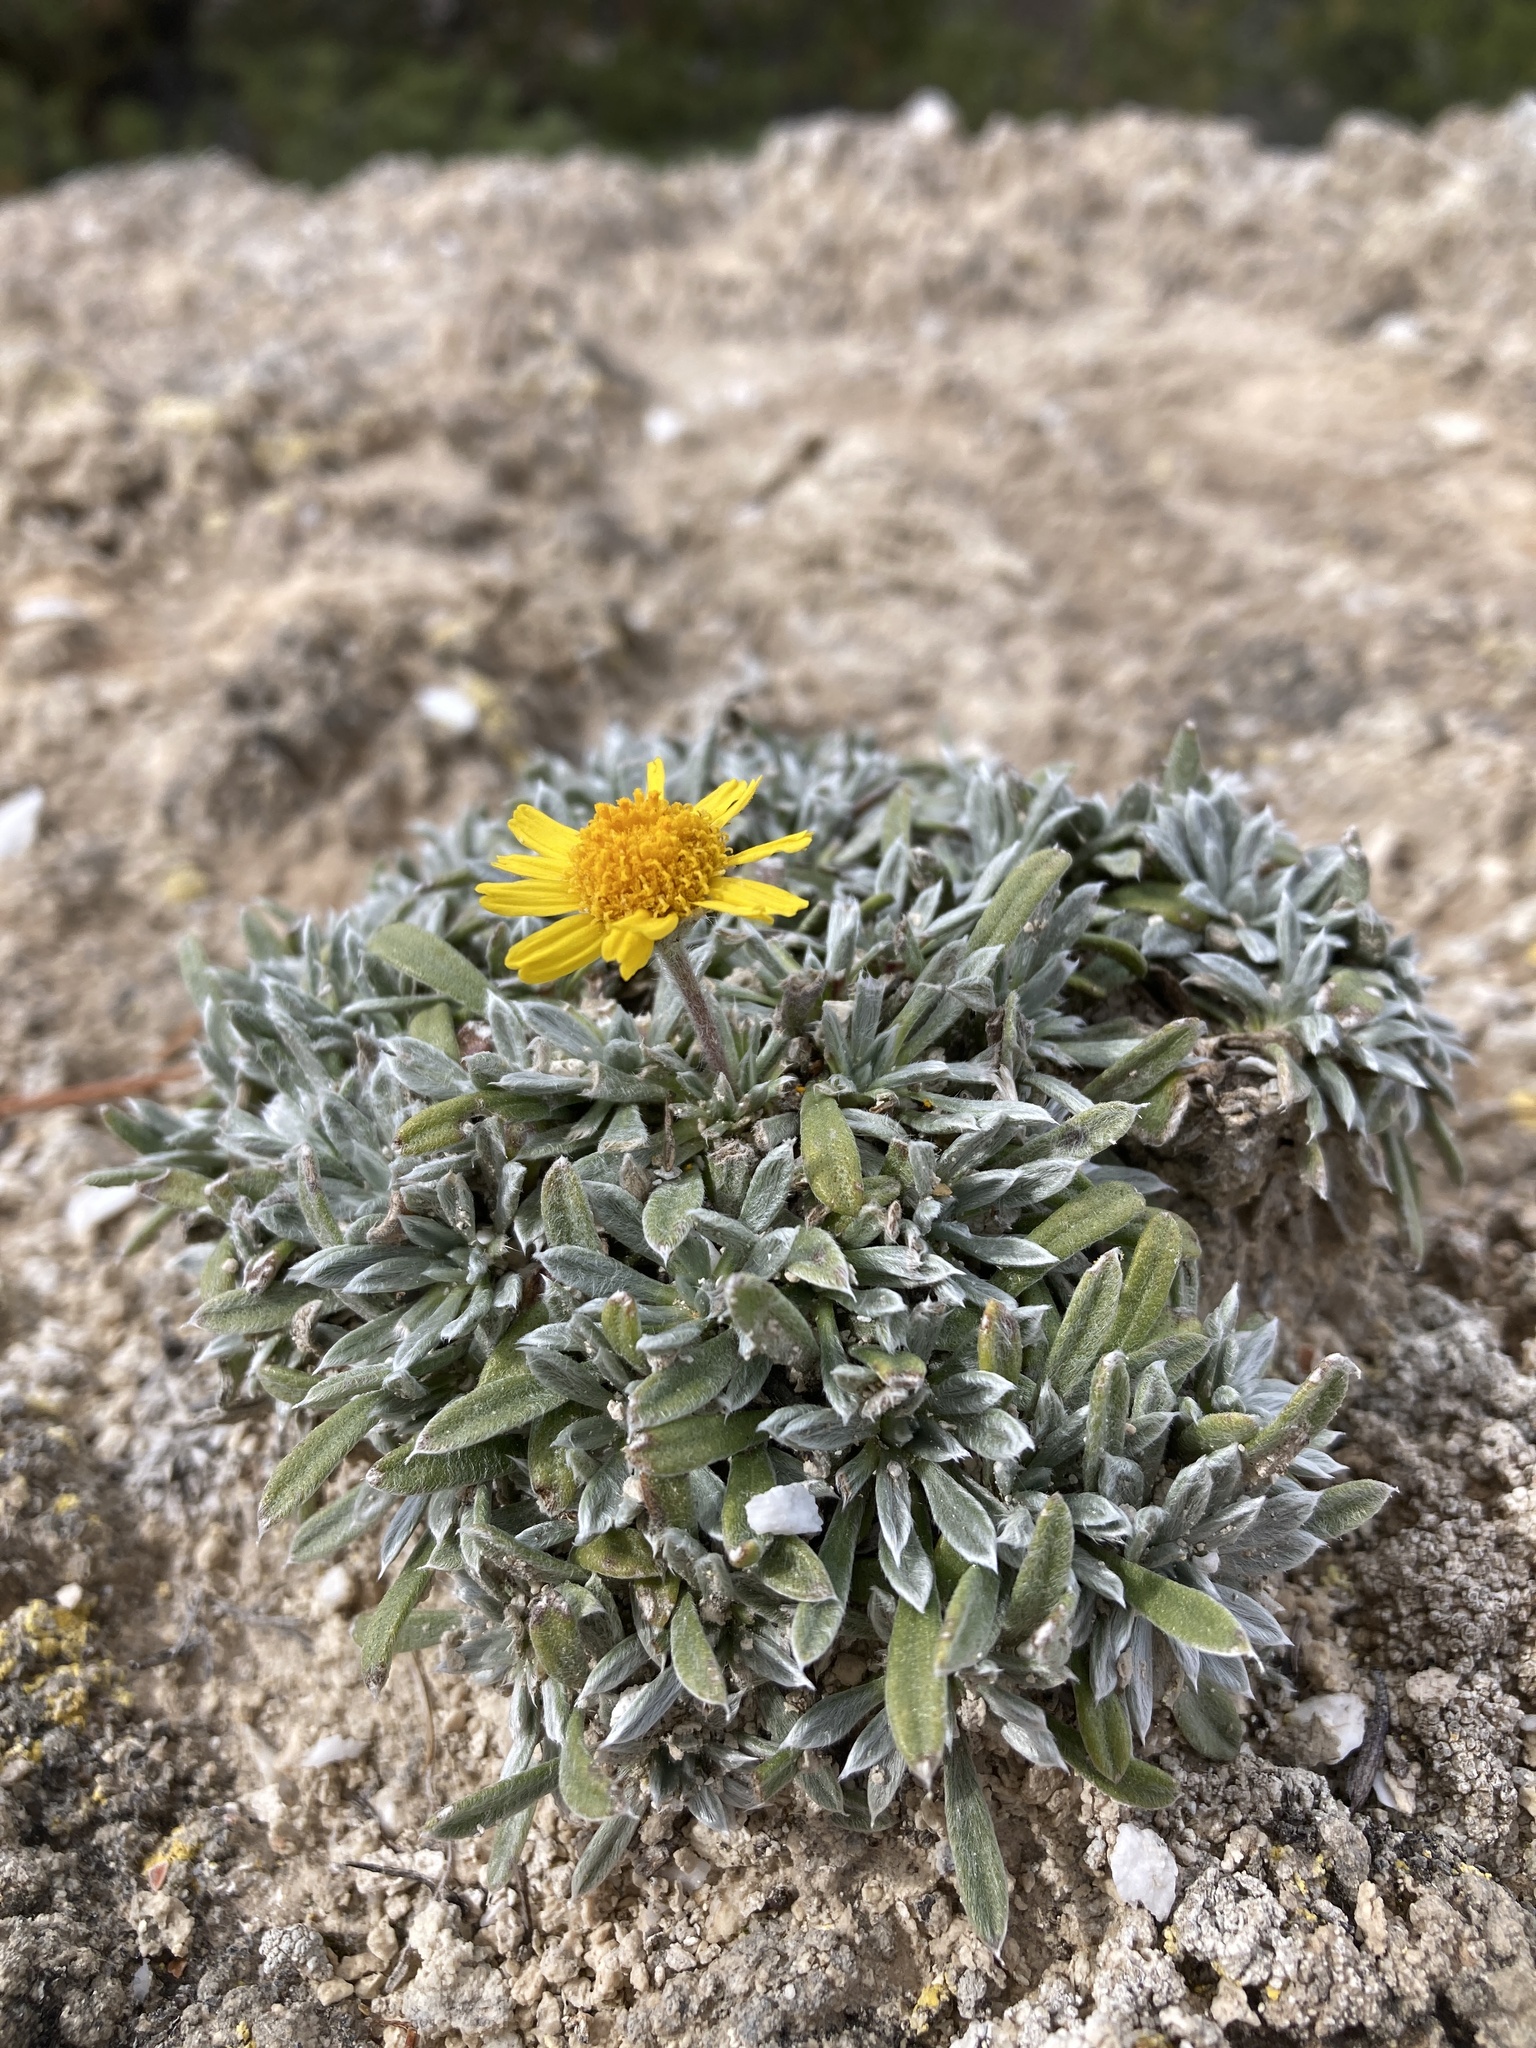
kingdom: Plantae
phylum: Tracheophyta
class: Magnoliopsida
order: Asterales
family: Asteraceae
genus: Tetraneuris
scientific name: Tetraneuris acaulis
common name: Butte marigold
